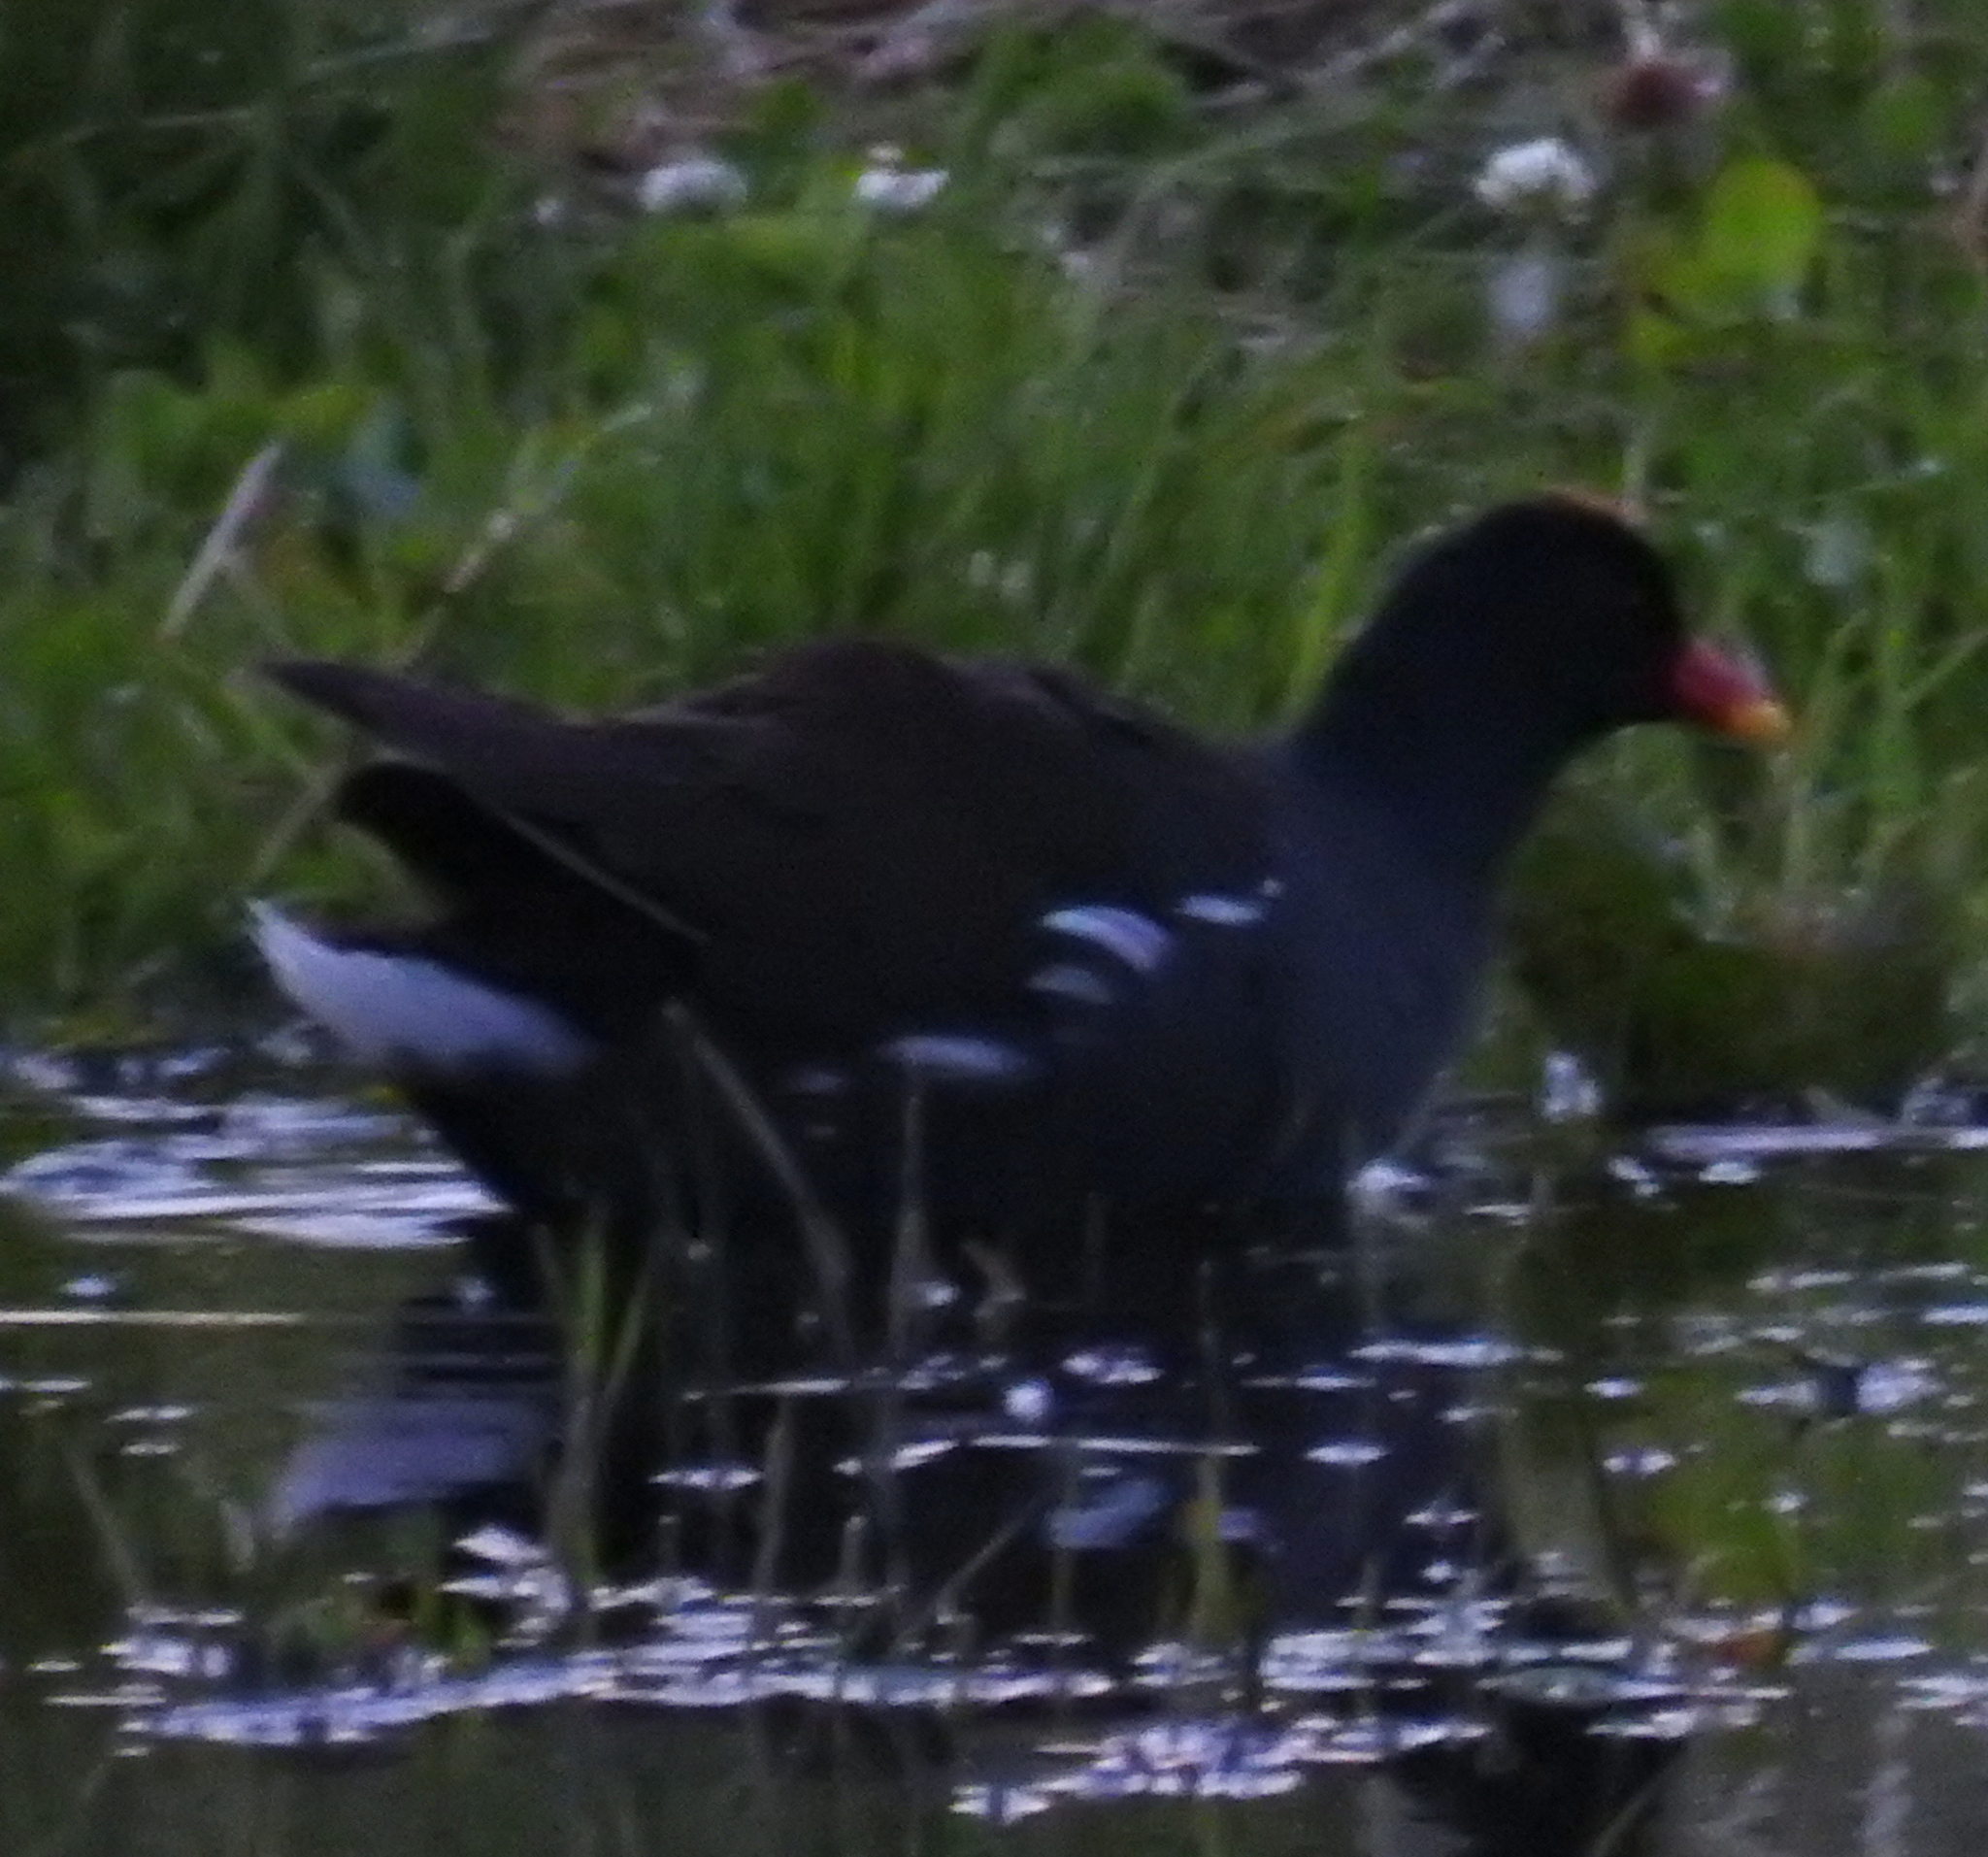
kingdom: Animalia
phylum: Chordata
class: Aves
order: Gruiformes
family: Rallidae
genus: Gallinula
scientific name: Gallinula chloropus
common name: Common moorhen
